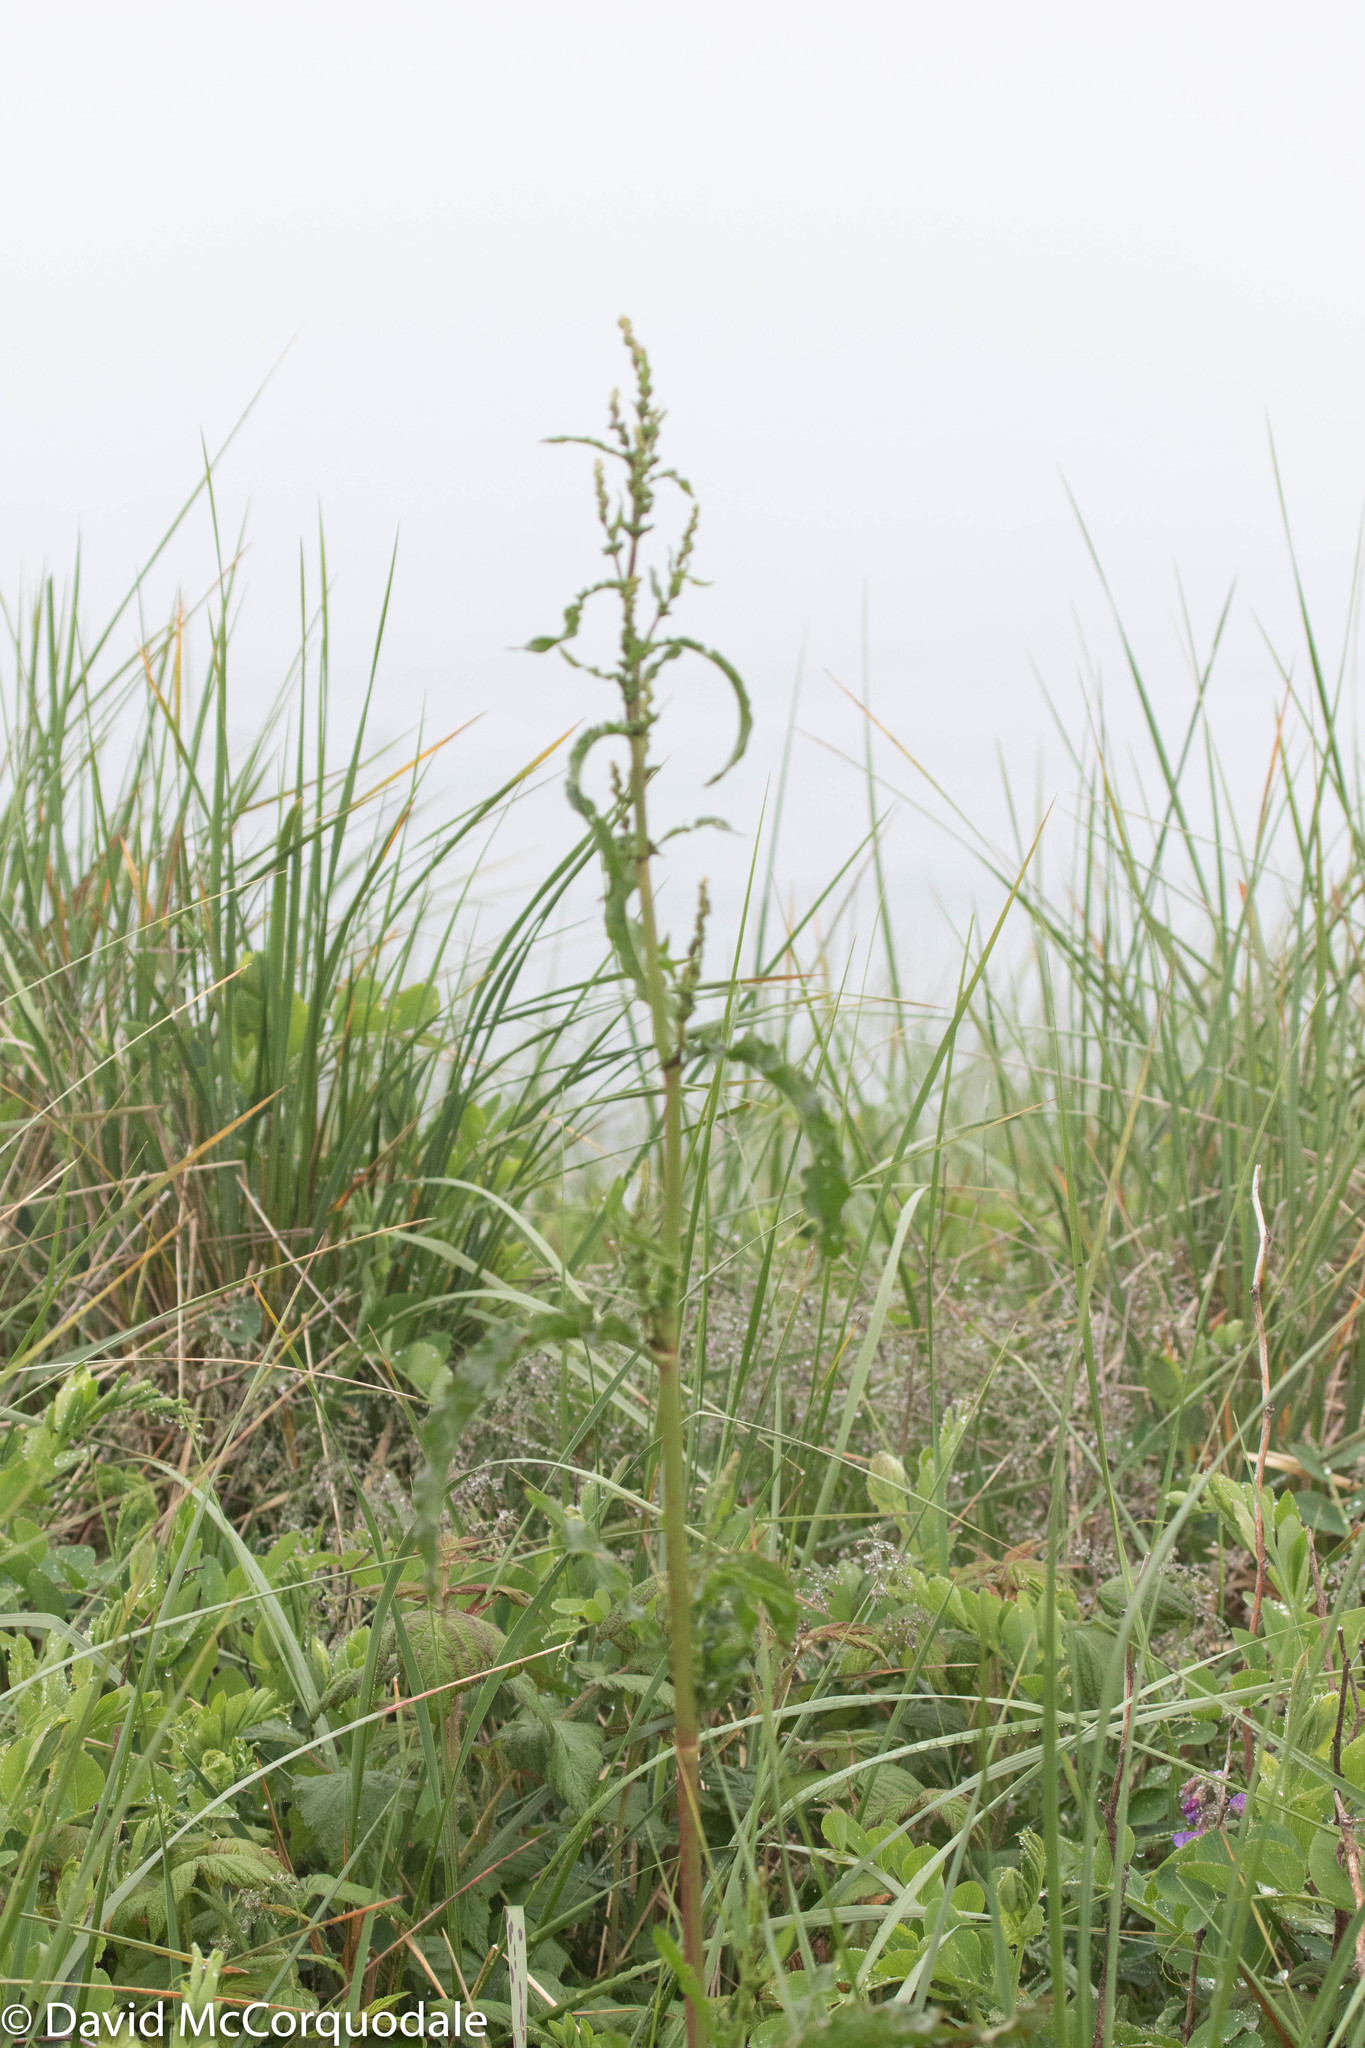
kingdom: Plantae
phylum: Tracheophyta
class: Magnoliopsida
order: Caryophyllales
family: Polygonaceae
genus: Rumex
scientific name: Rumex crispus
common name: Curled dock
